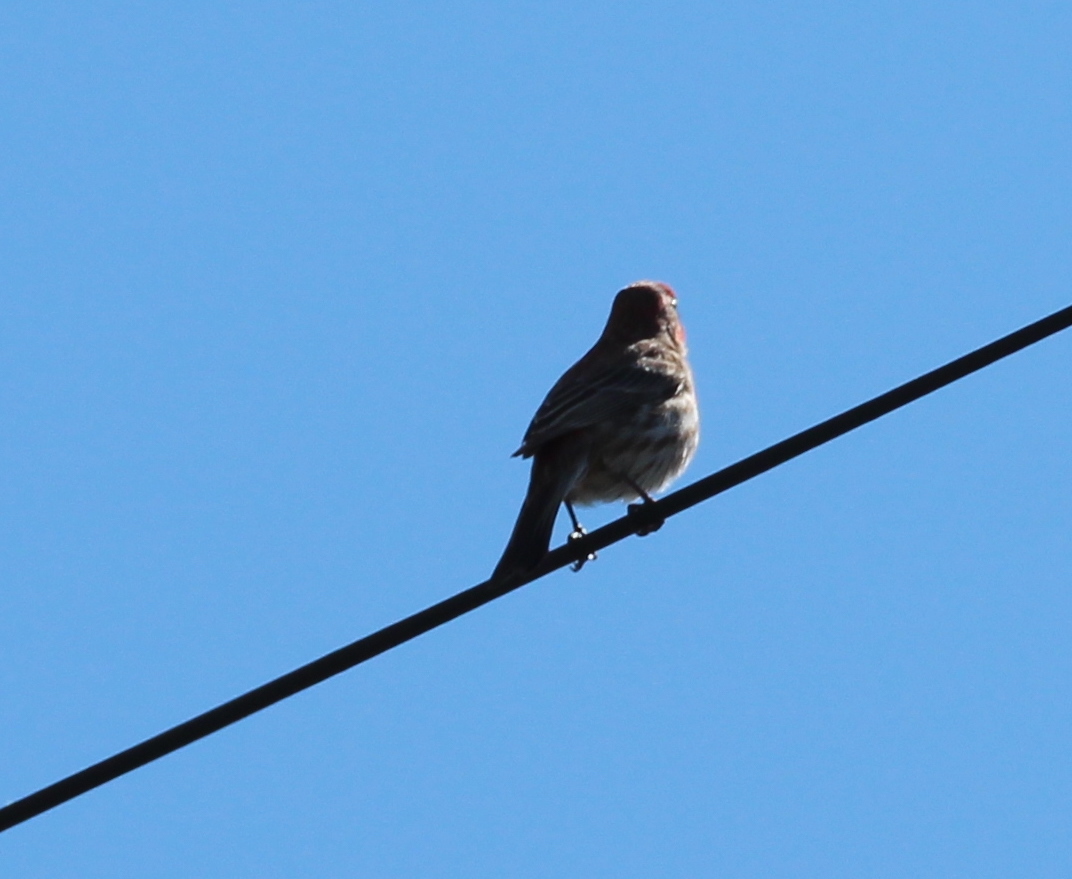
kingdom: Animalia
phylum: Chordata
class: Aves
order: Passeriformes
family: Fringillidae
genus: Haemorhous
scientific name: Haemorhous mexicanus
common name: House finch
